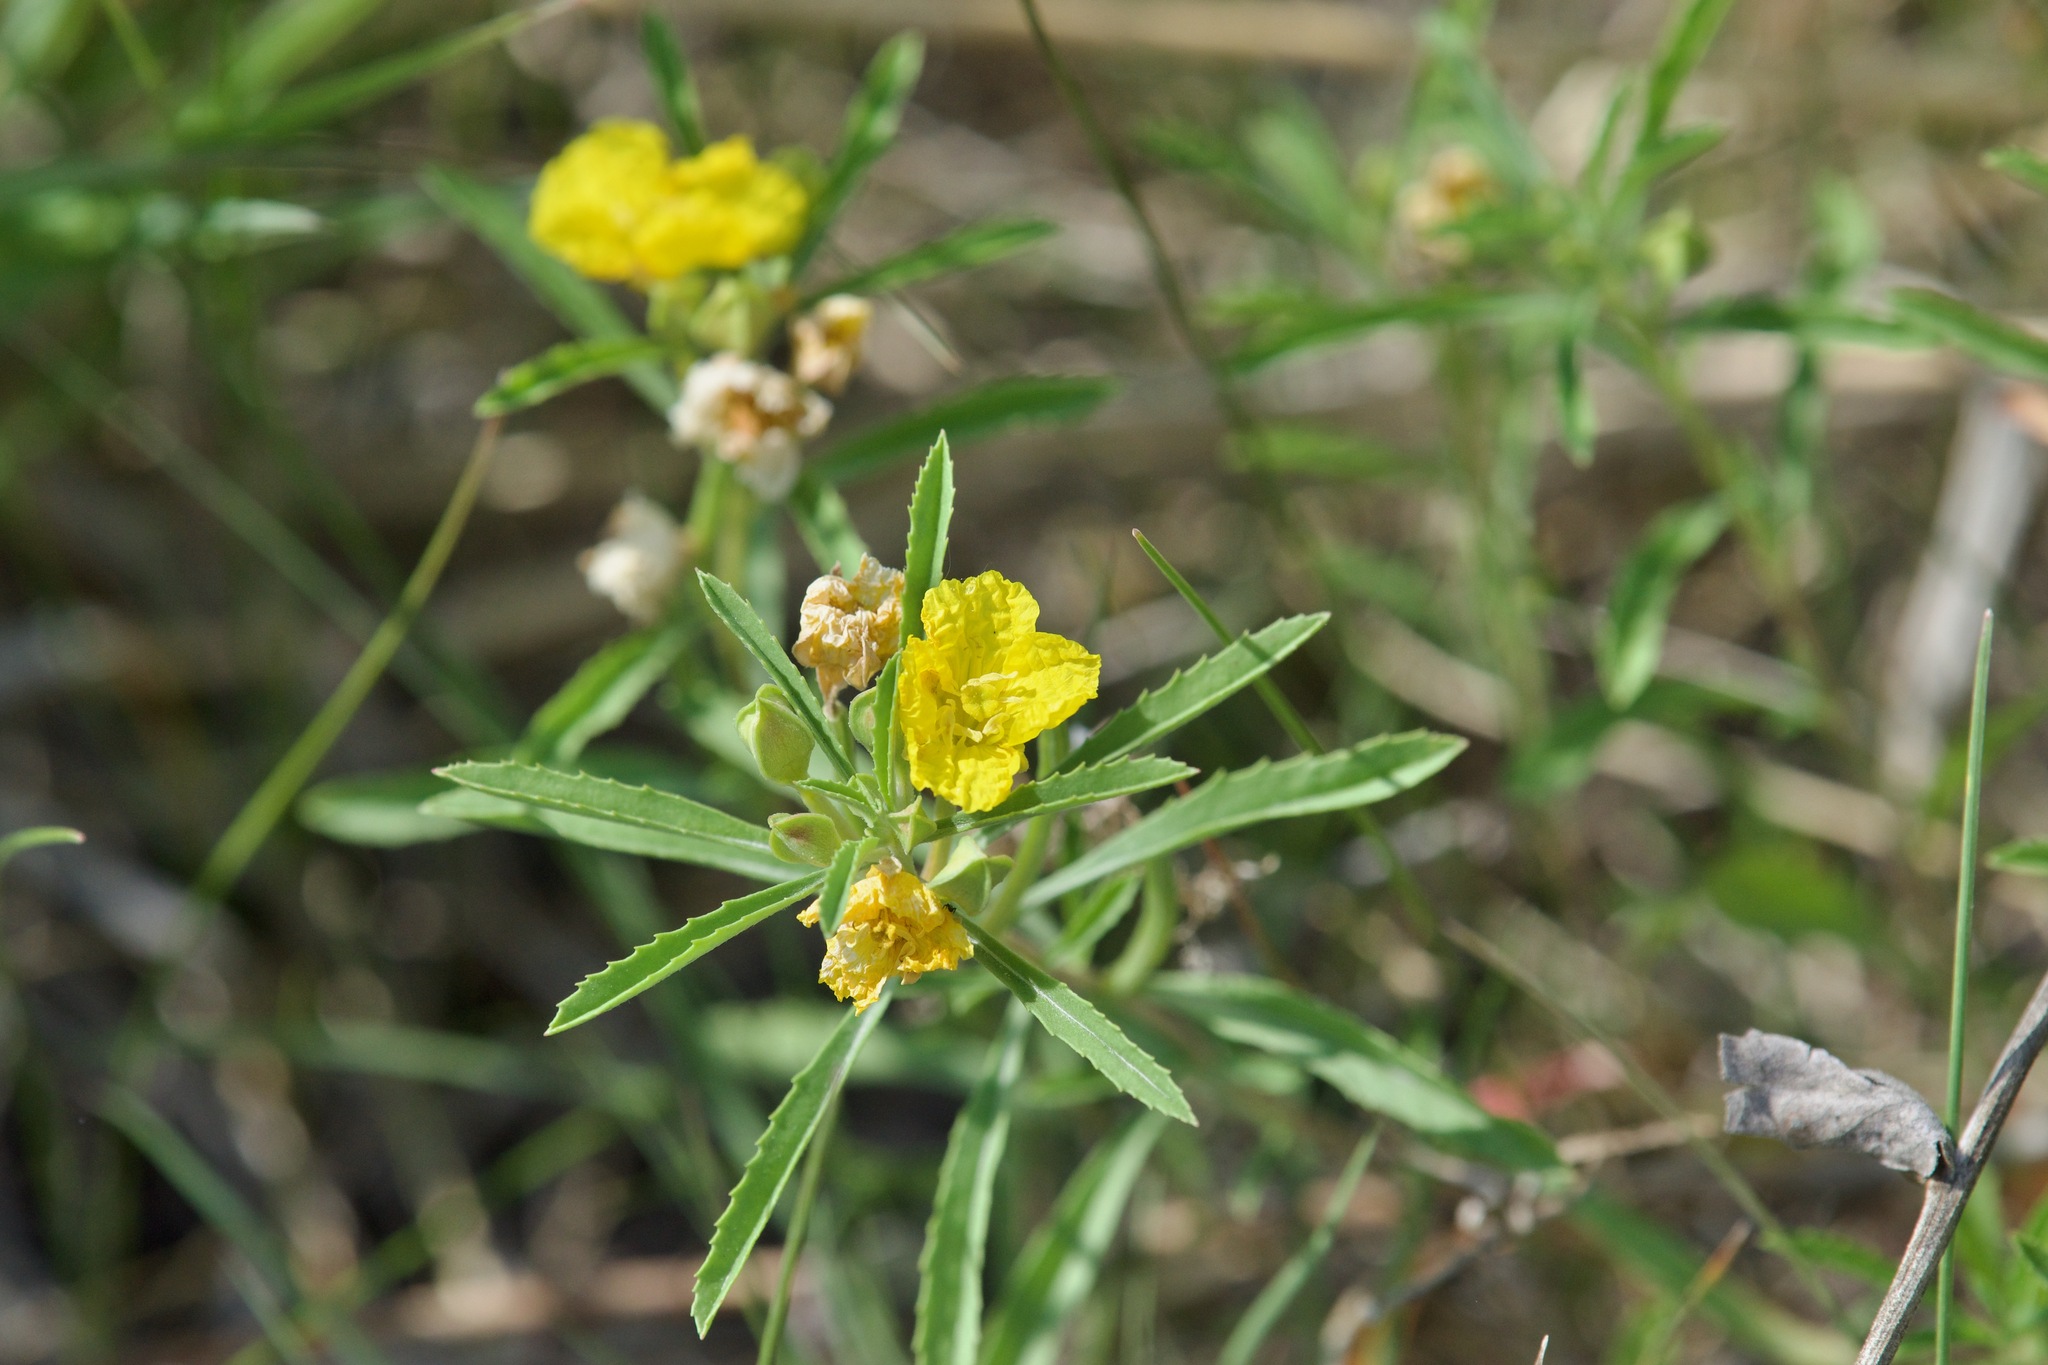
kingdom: Plantae
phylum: Tracheophyta
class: Magnoliopsida
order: Myrtales
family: Onagraceae
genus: Oenothera
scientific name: Oenothera serrulata
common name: Half-shrub calylophus
